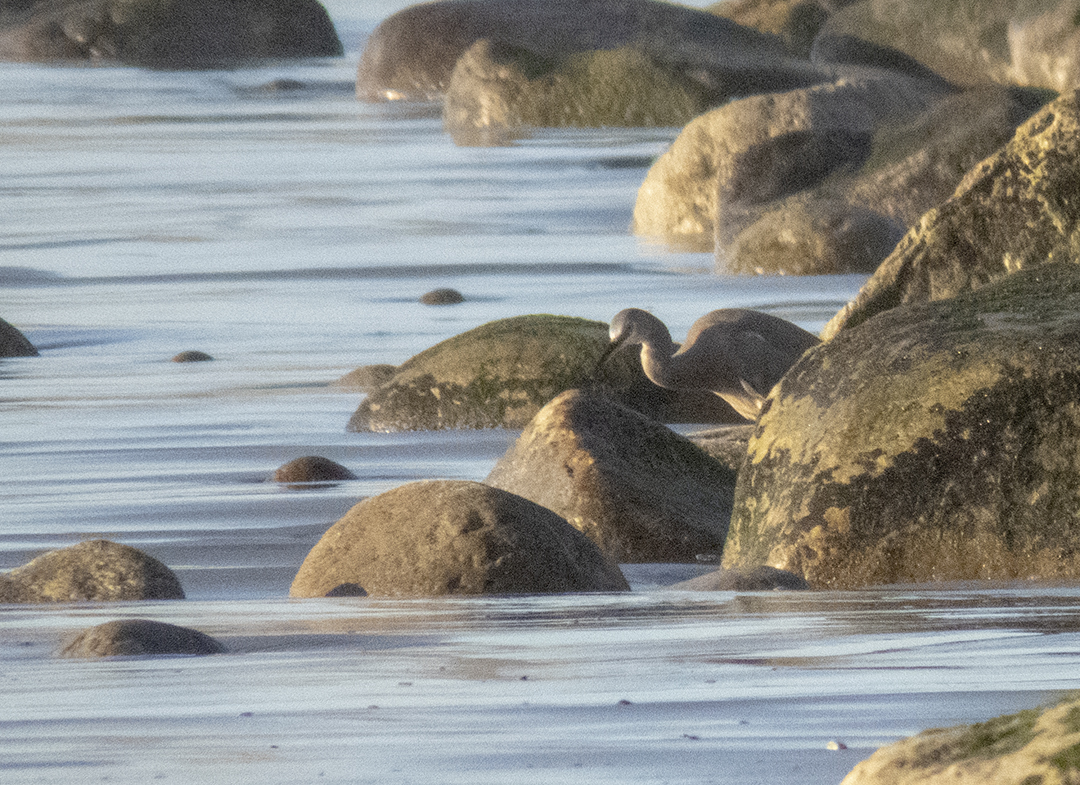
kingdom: Animalia
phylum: Chordata
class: Aves
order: Pelecaniformes
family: Ardeidae
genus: Egretta
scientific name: Egretta novaehollandiae
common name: White-faced heron
